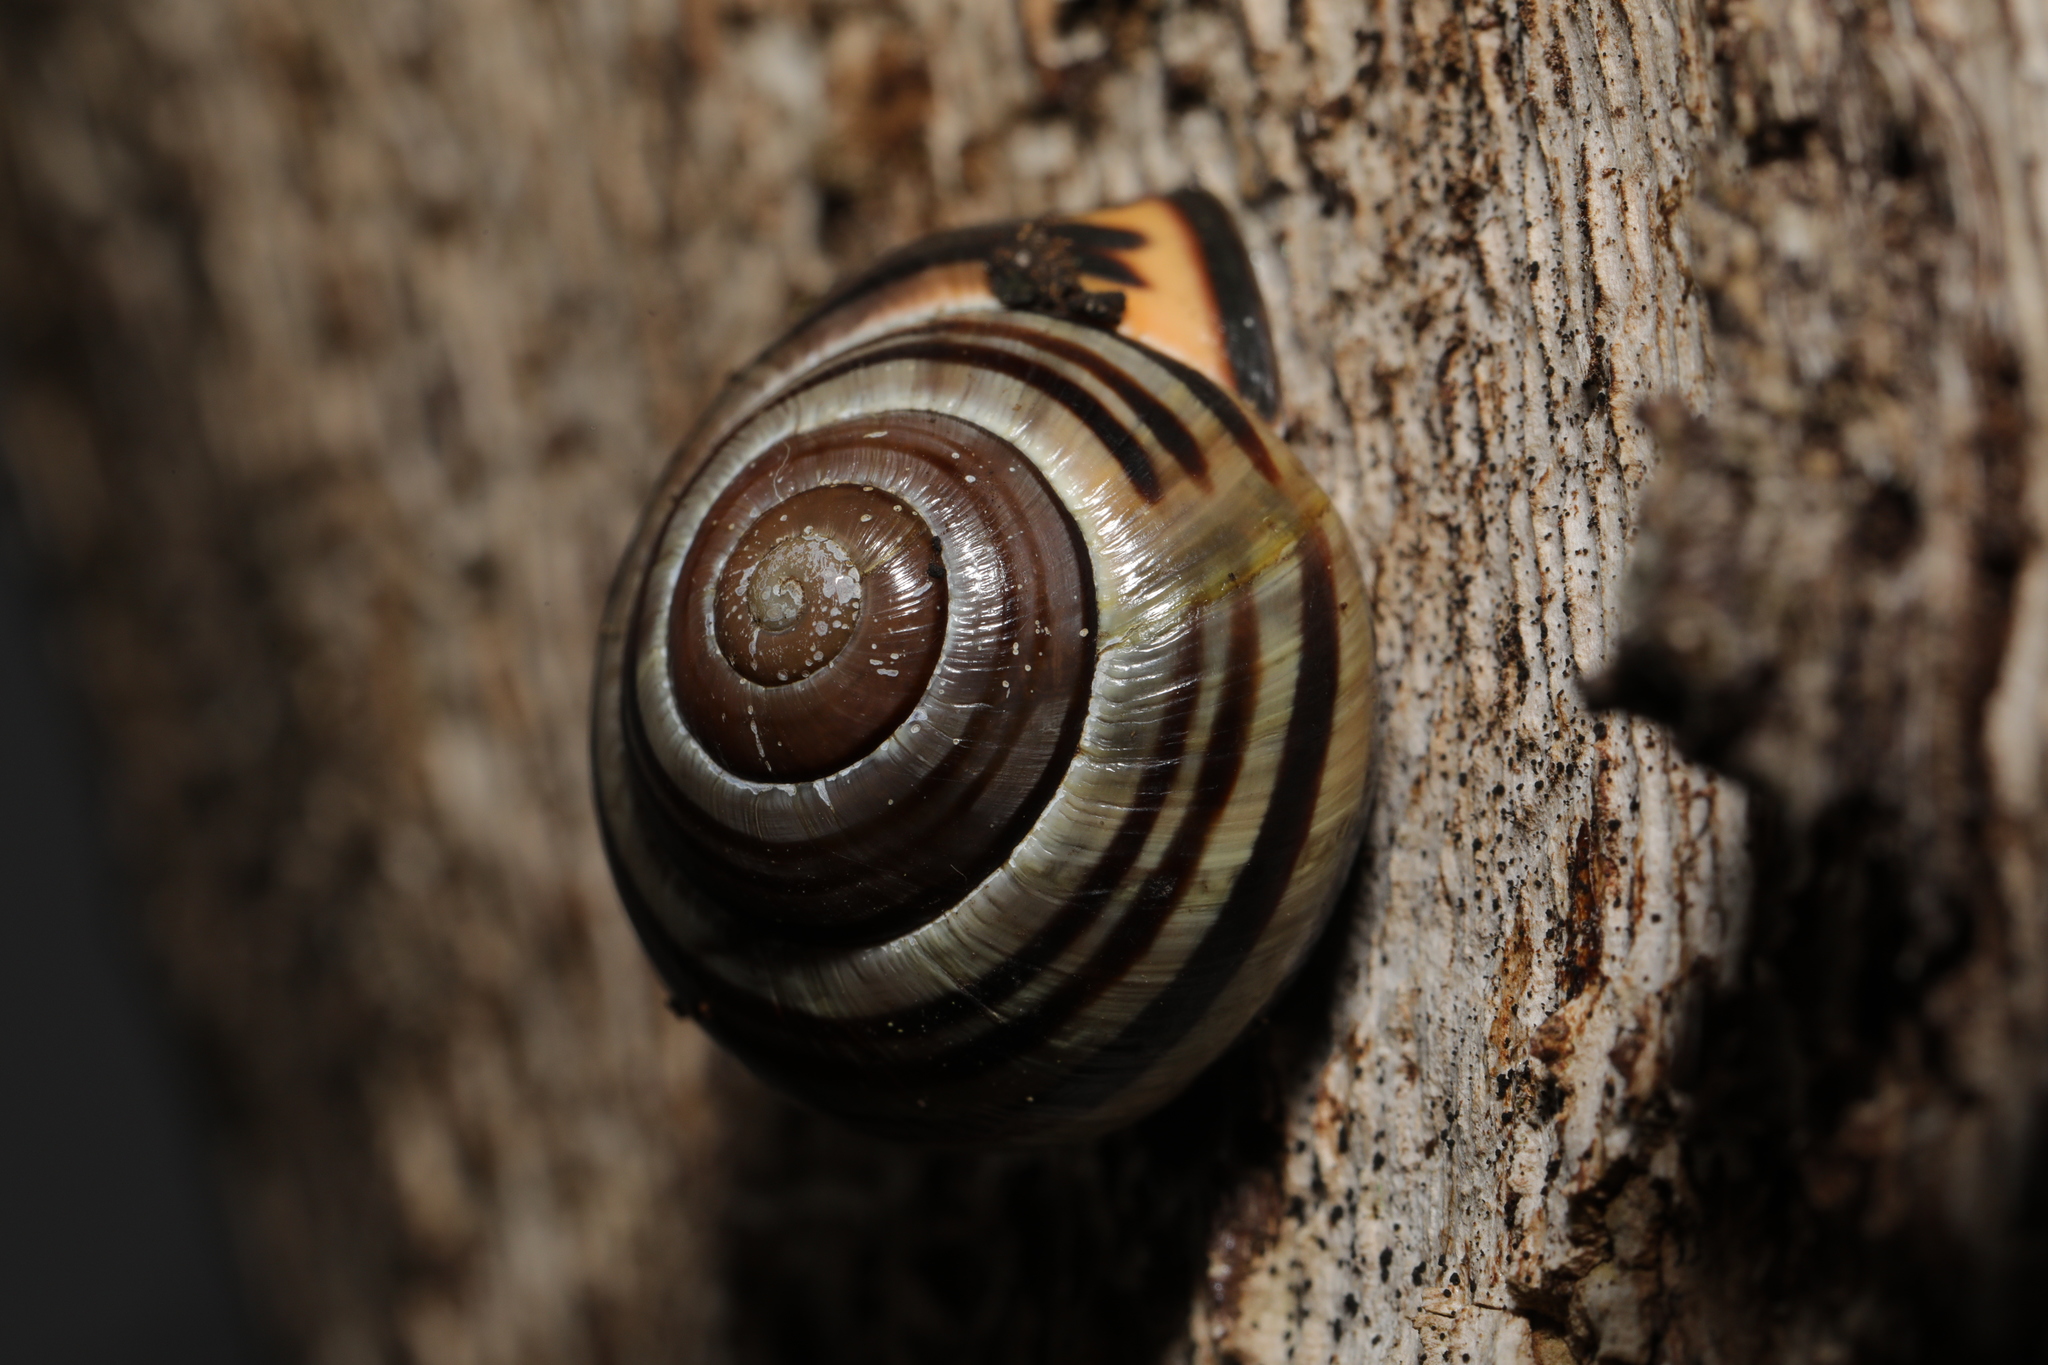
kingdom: Animalia
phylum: Mollusca
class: Gastropoda
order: Stylommatophora
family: Helicidae
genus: Cepaea
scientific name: Cepaea nemoralis
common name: Grovesnail
